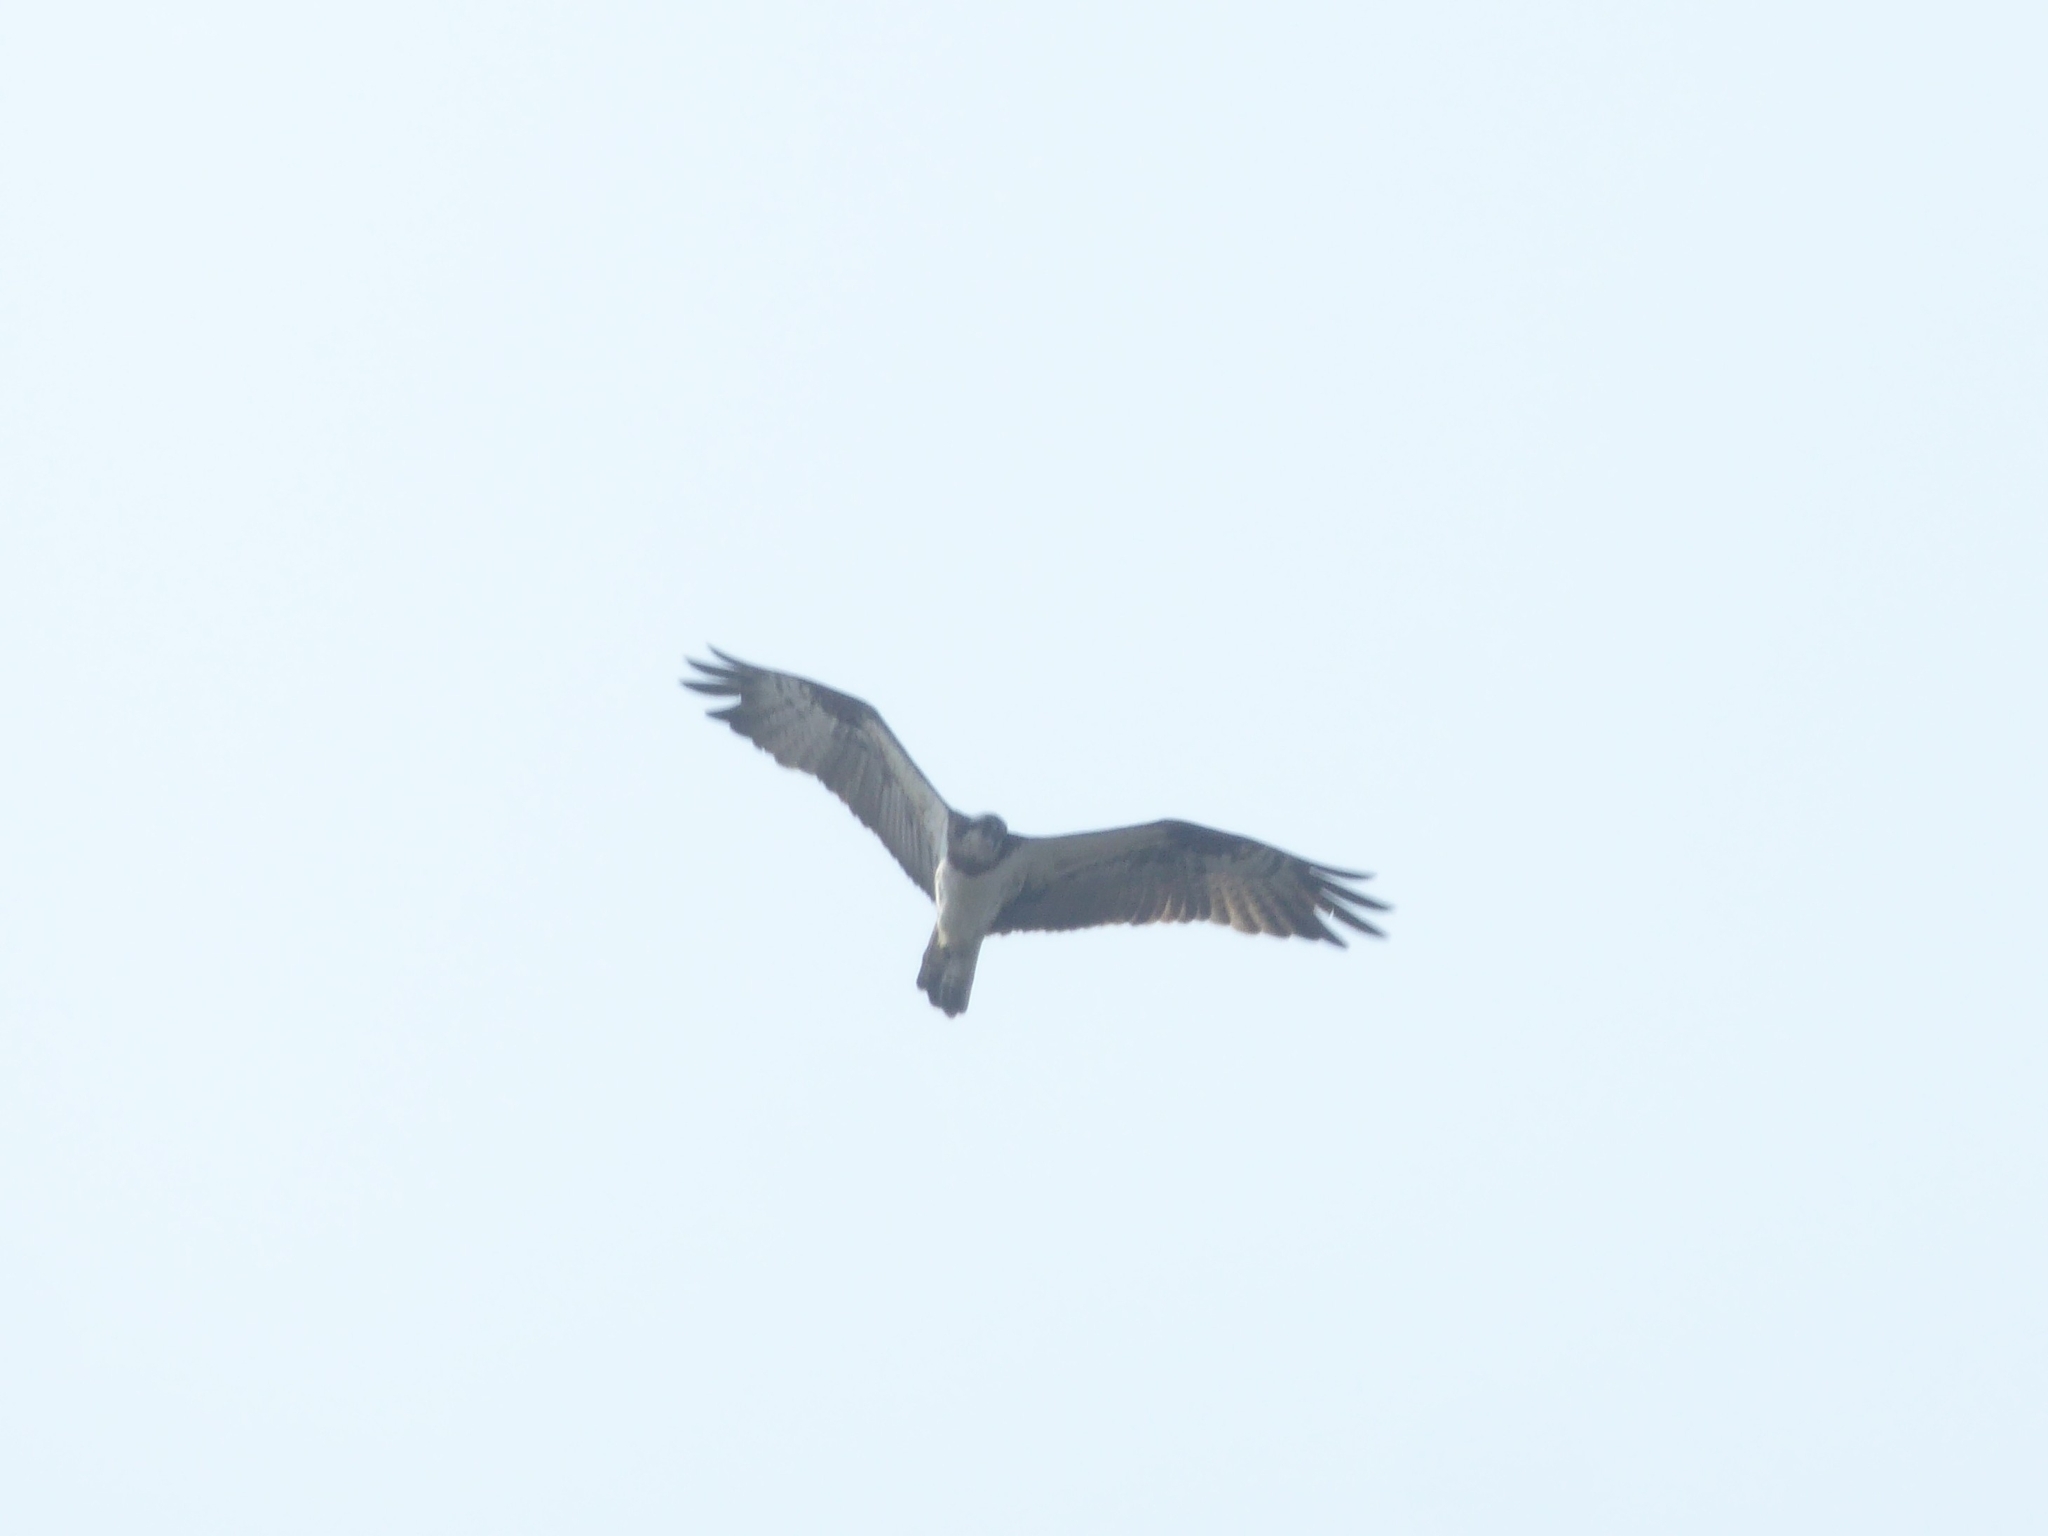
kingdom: Animalia
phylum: Chordata
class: Aves
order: Accipitriformes
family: Pandionidae
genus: Pandion
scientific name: Pandion haliaetus
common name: Osprey
